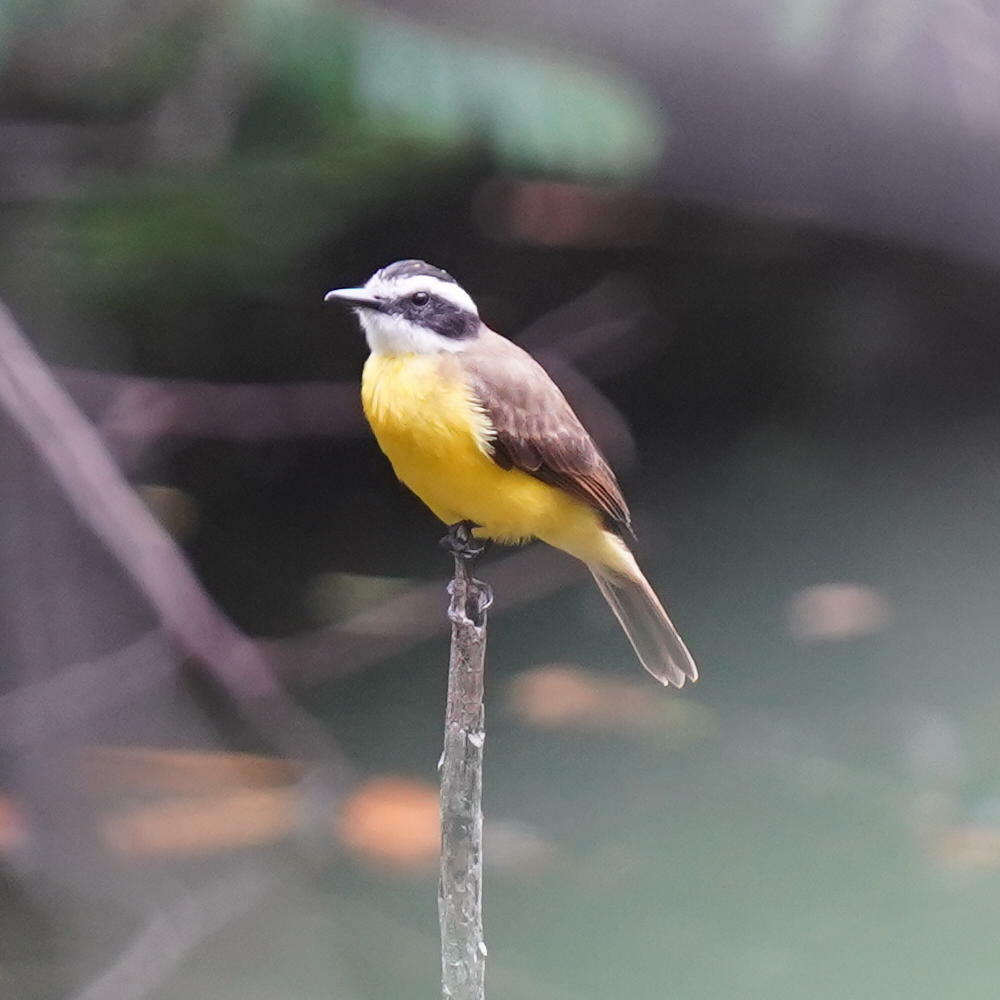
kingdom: Animalia
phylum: Chordata
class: Aves
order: Passeriformes
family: Tyrannidae
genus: Pitangus
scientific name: Pitangus lictor
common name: Lesser kiskadee
